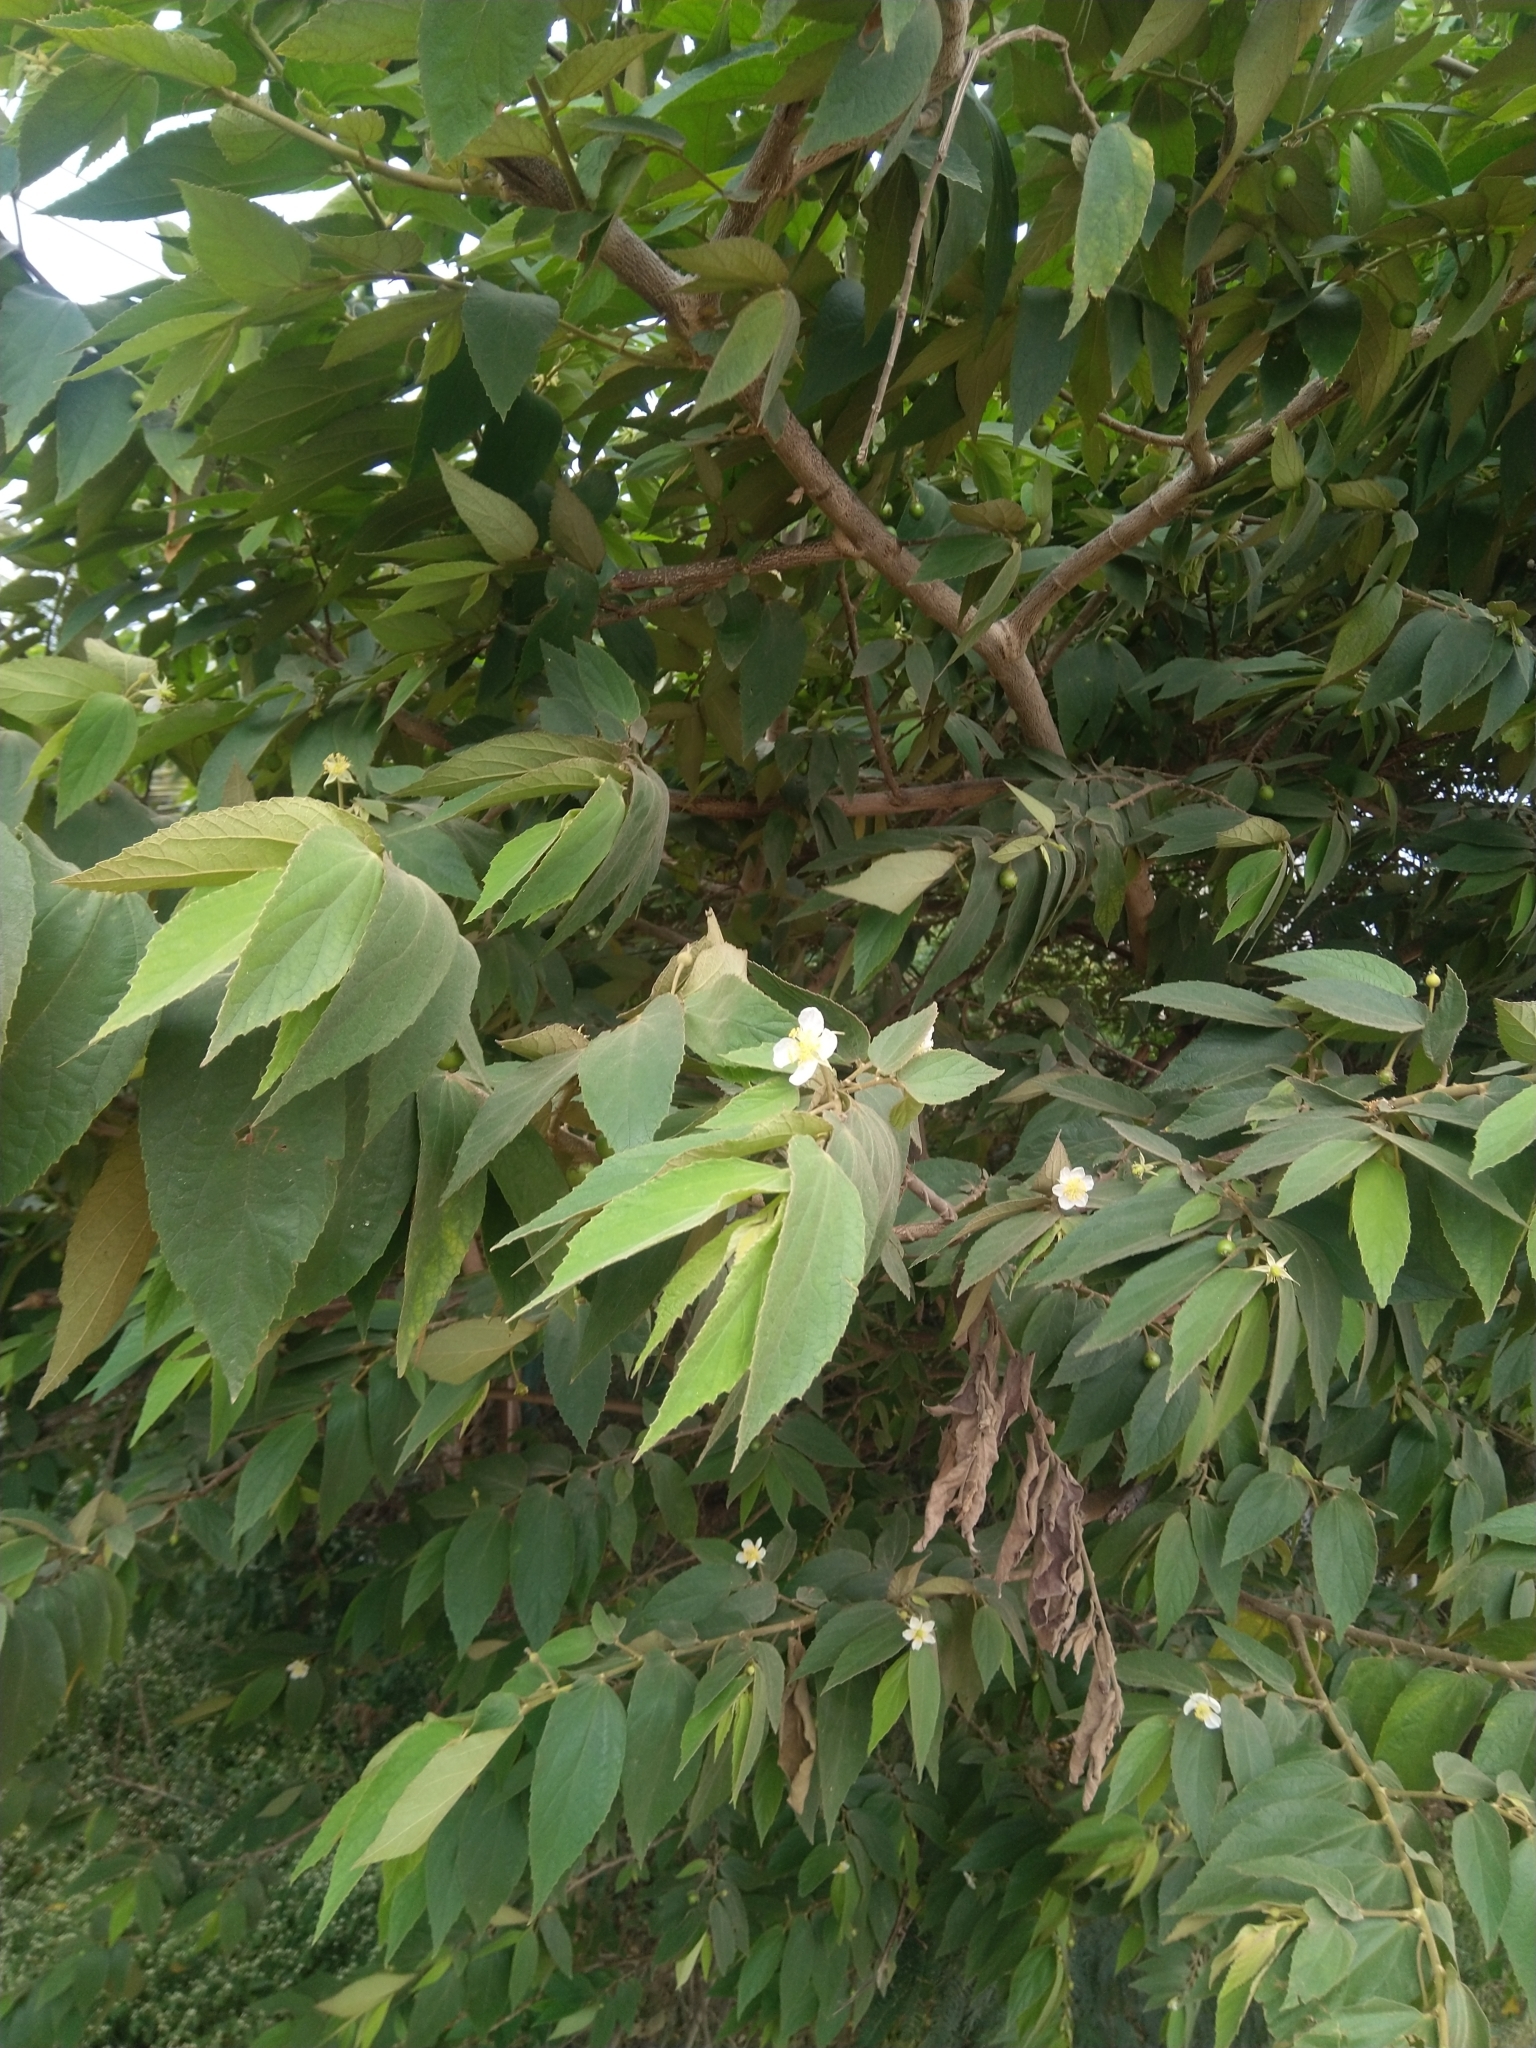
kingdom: Plantae
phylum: Tracheophyta
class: Magnoliopsida
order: Malvales
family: Muntingiaceae
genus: Muntingia
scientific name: Muntingia calabura
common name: Strawberrytree
